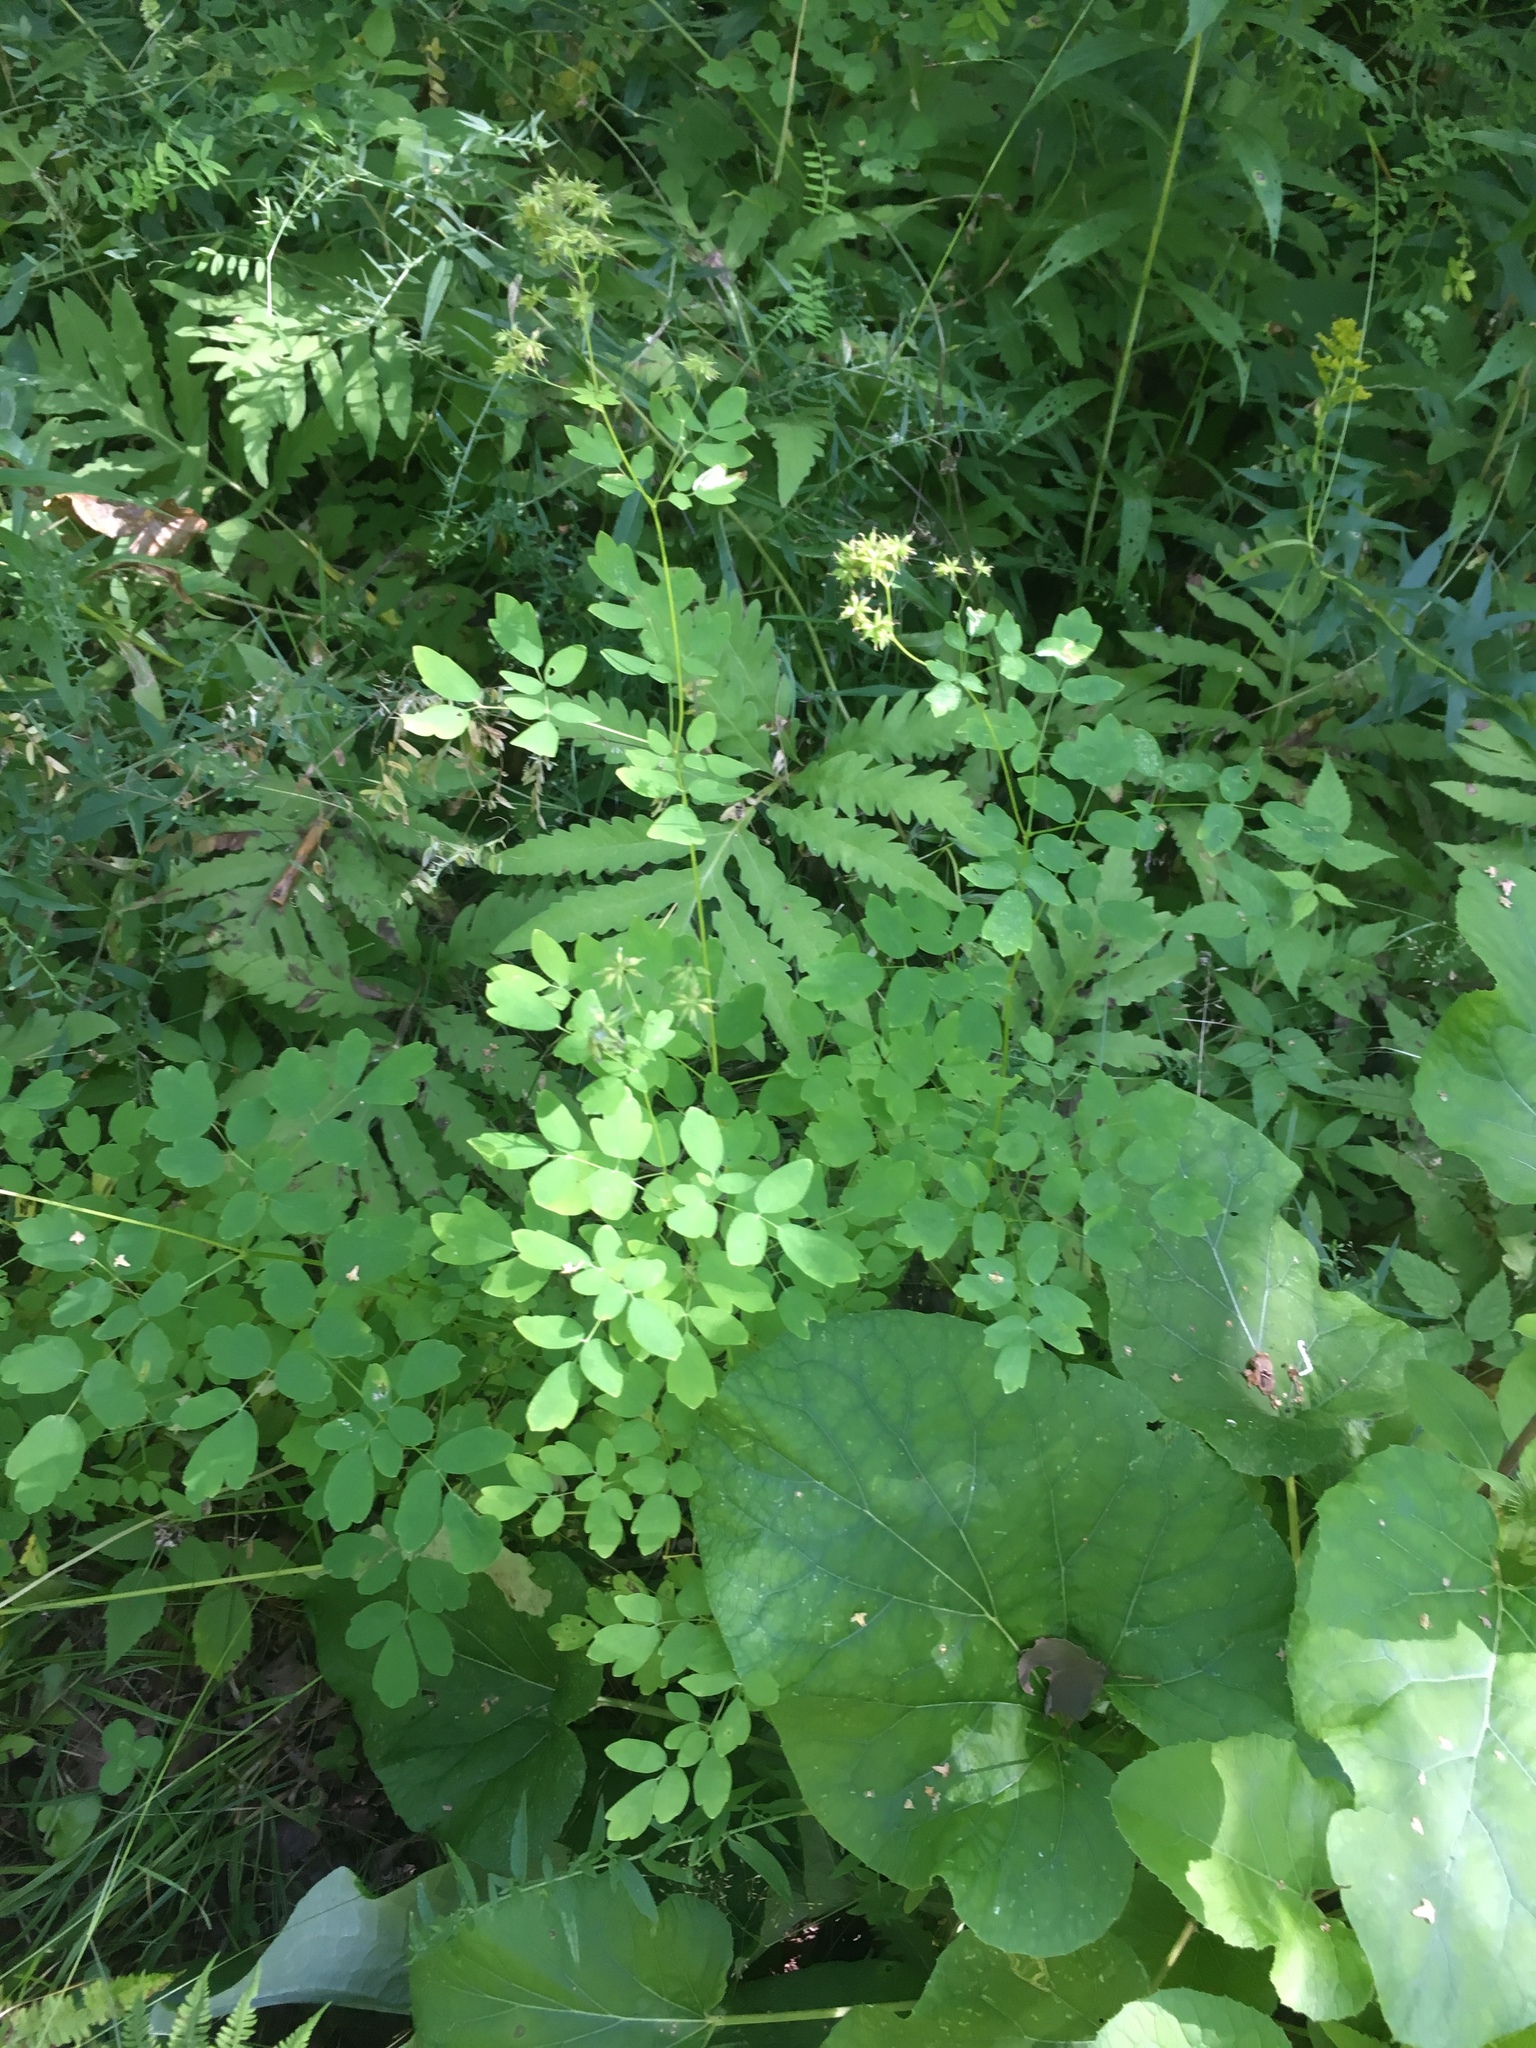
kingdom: Plantae
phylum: Tracheophyta
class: Magnoliopsida
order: Ranunculales
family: Ranunculaceae
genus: Thalictrum
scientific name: Thalictrum pubescens
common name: King-of-the-meadow
